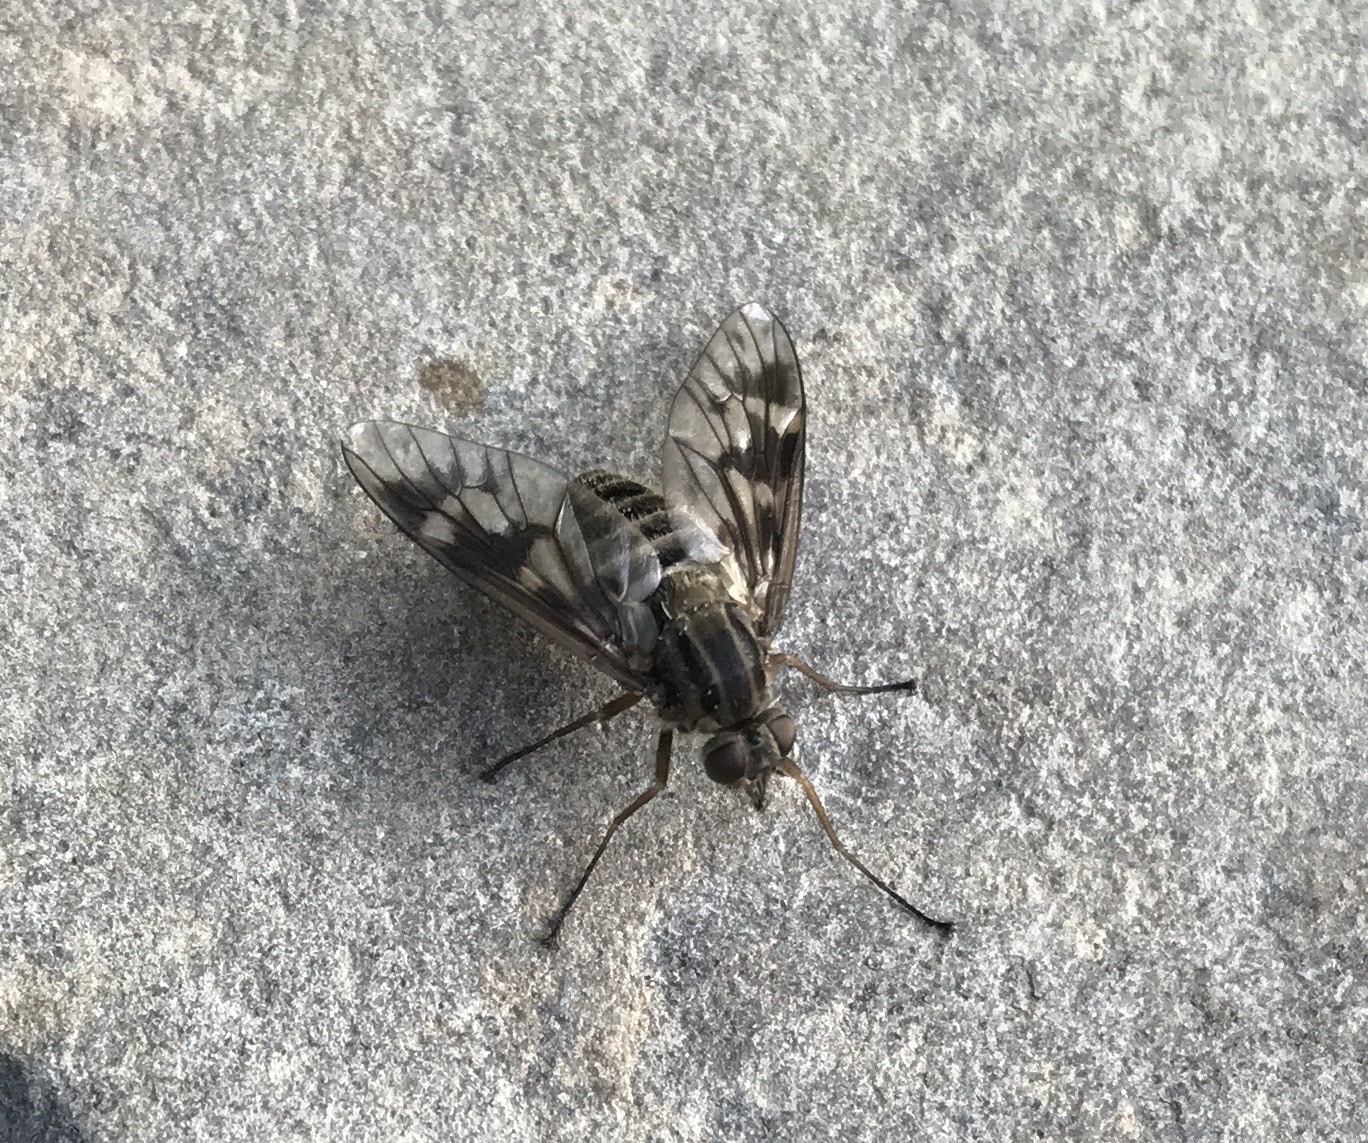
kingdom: Animalia
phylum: Arthropoda
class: Insecta
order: Diptera
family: Athericidae
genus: Atherix
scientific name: Atherix ibis
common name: Yellow-legged water-snipefly
